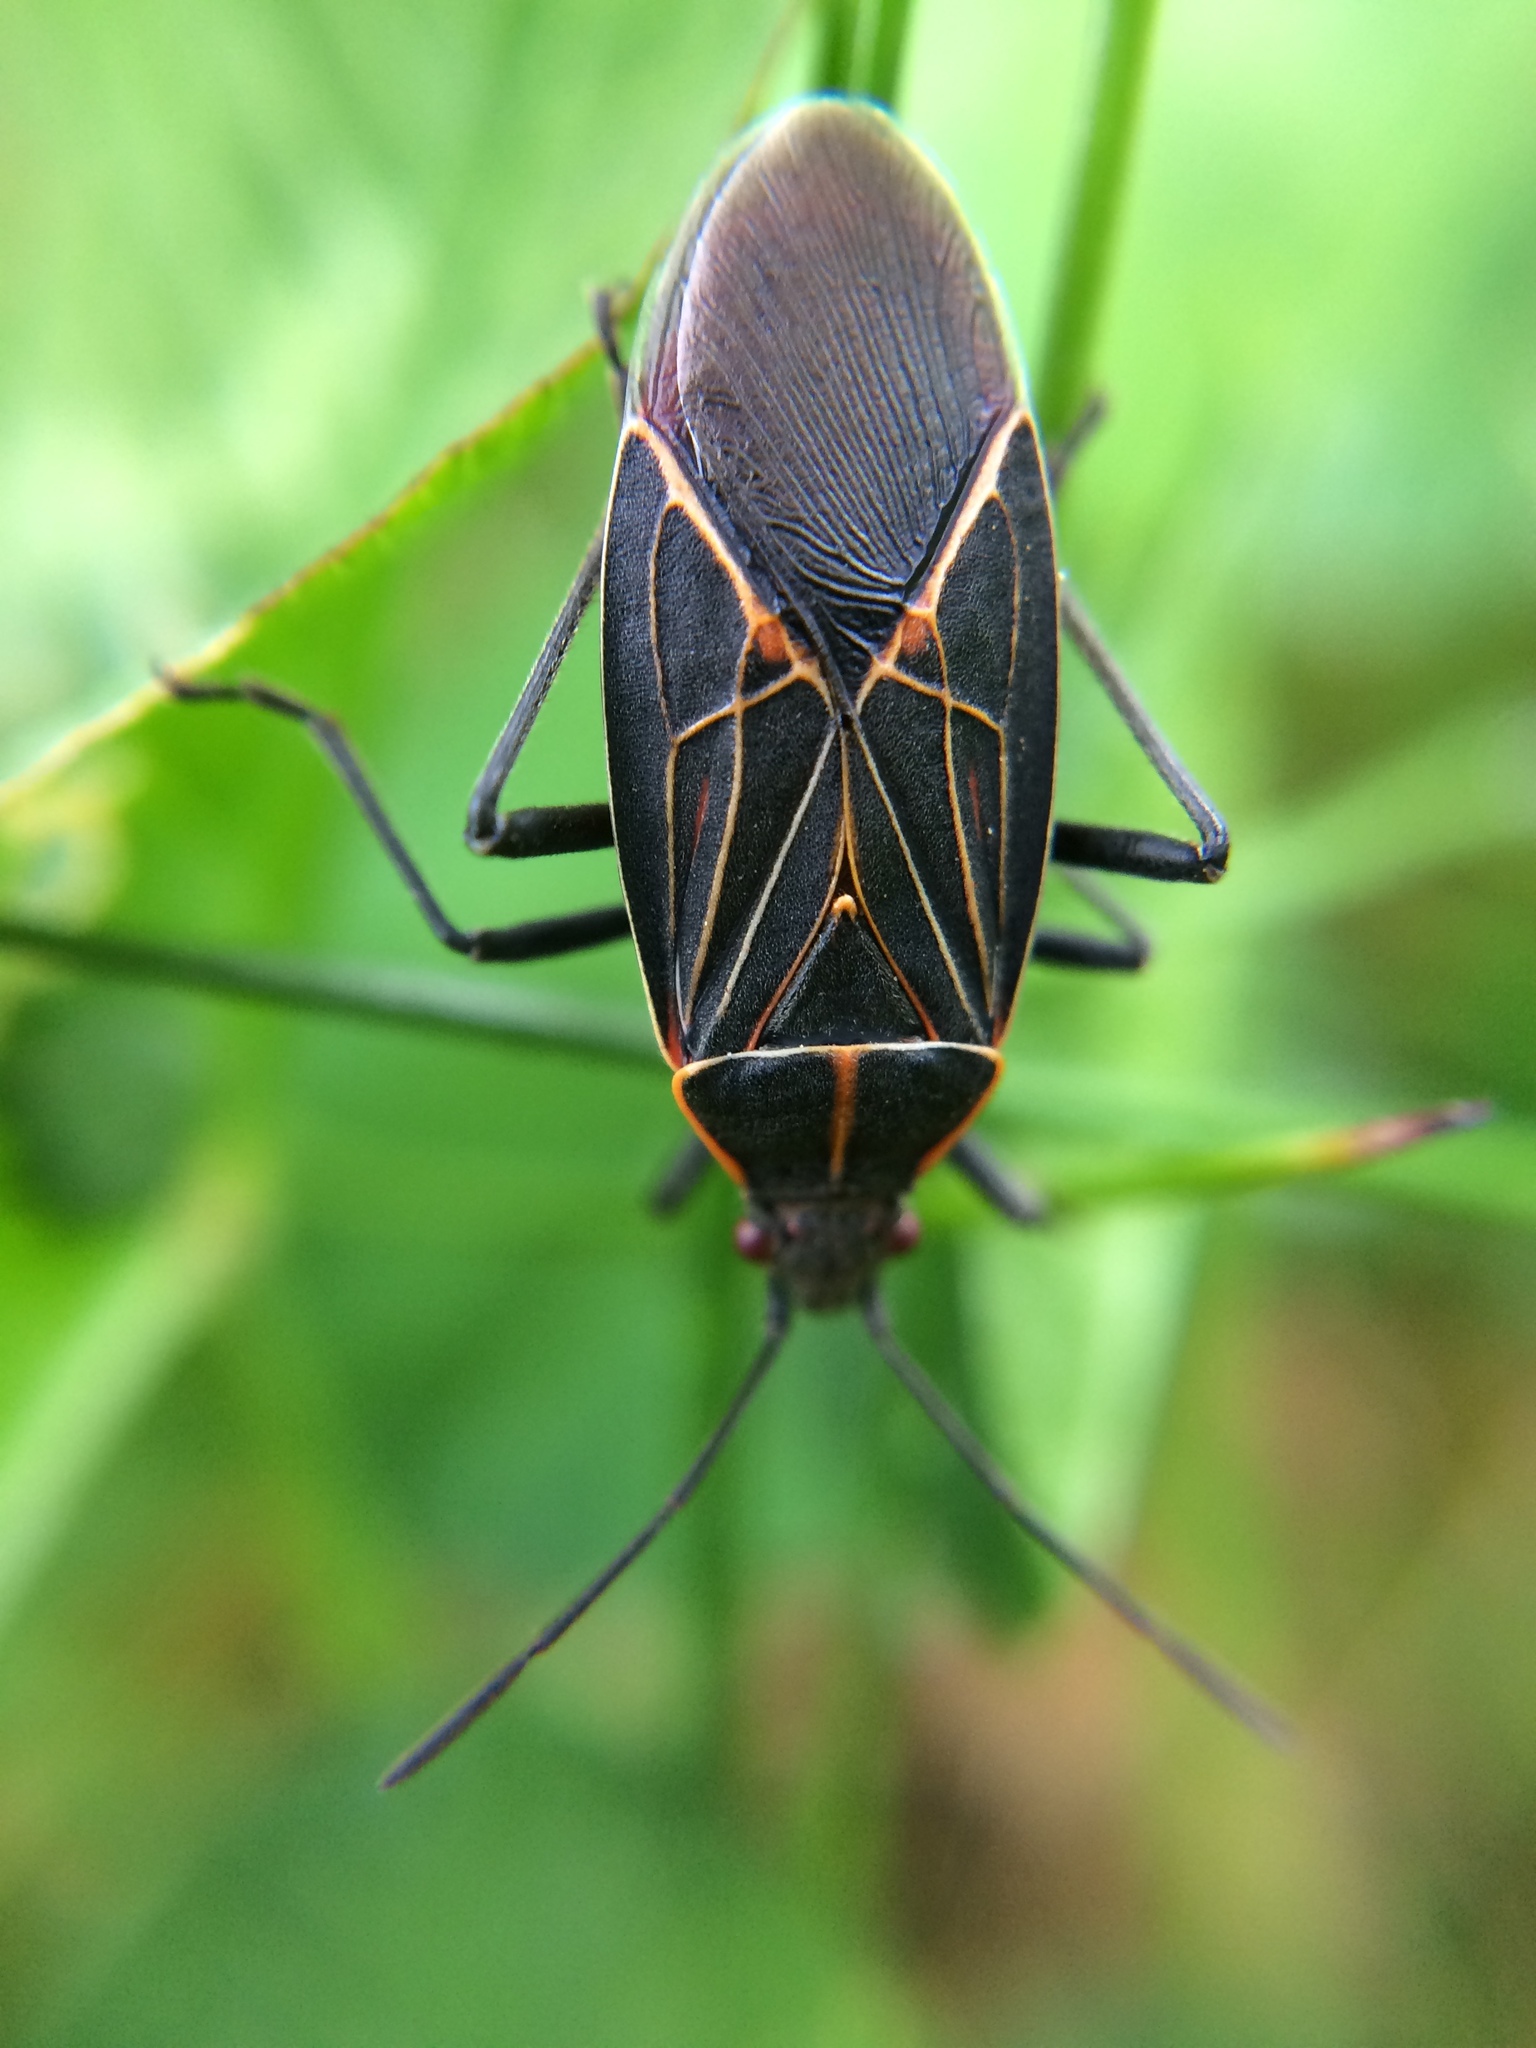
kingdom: Animalia
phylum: Arthropoda
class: Insecta
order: Hemiptera
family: Rhopalidae
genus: Boisea
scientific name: Boisea rubrolineata
